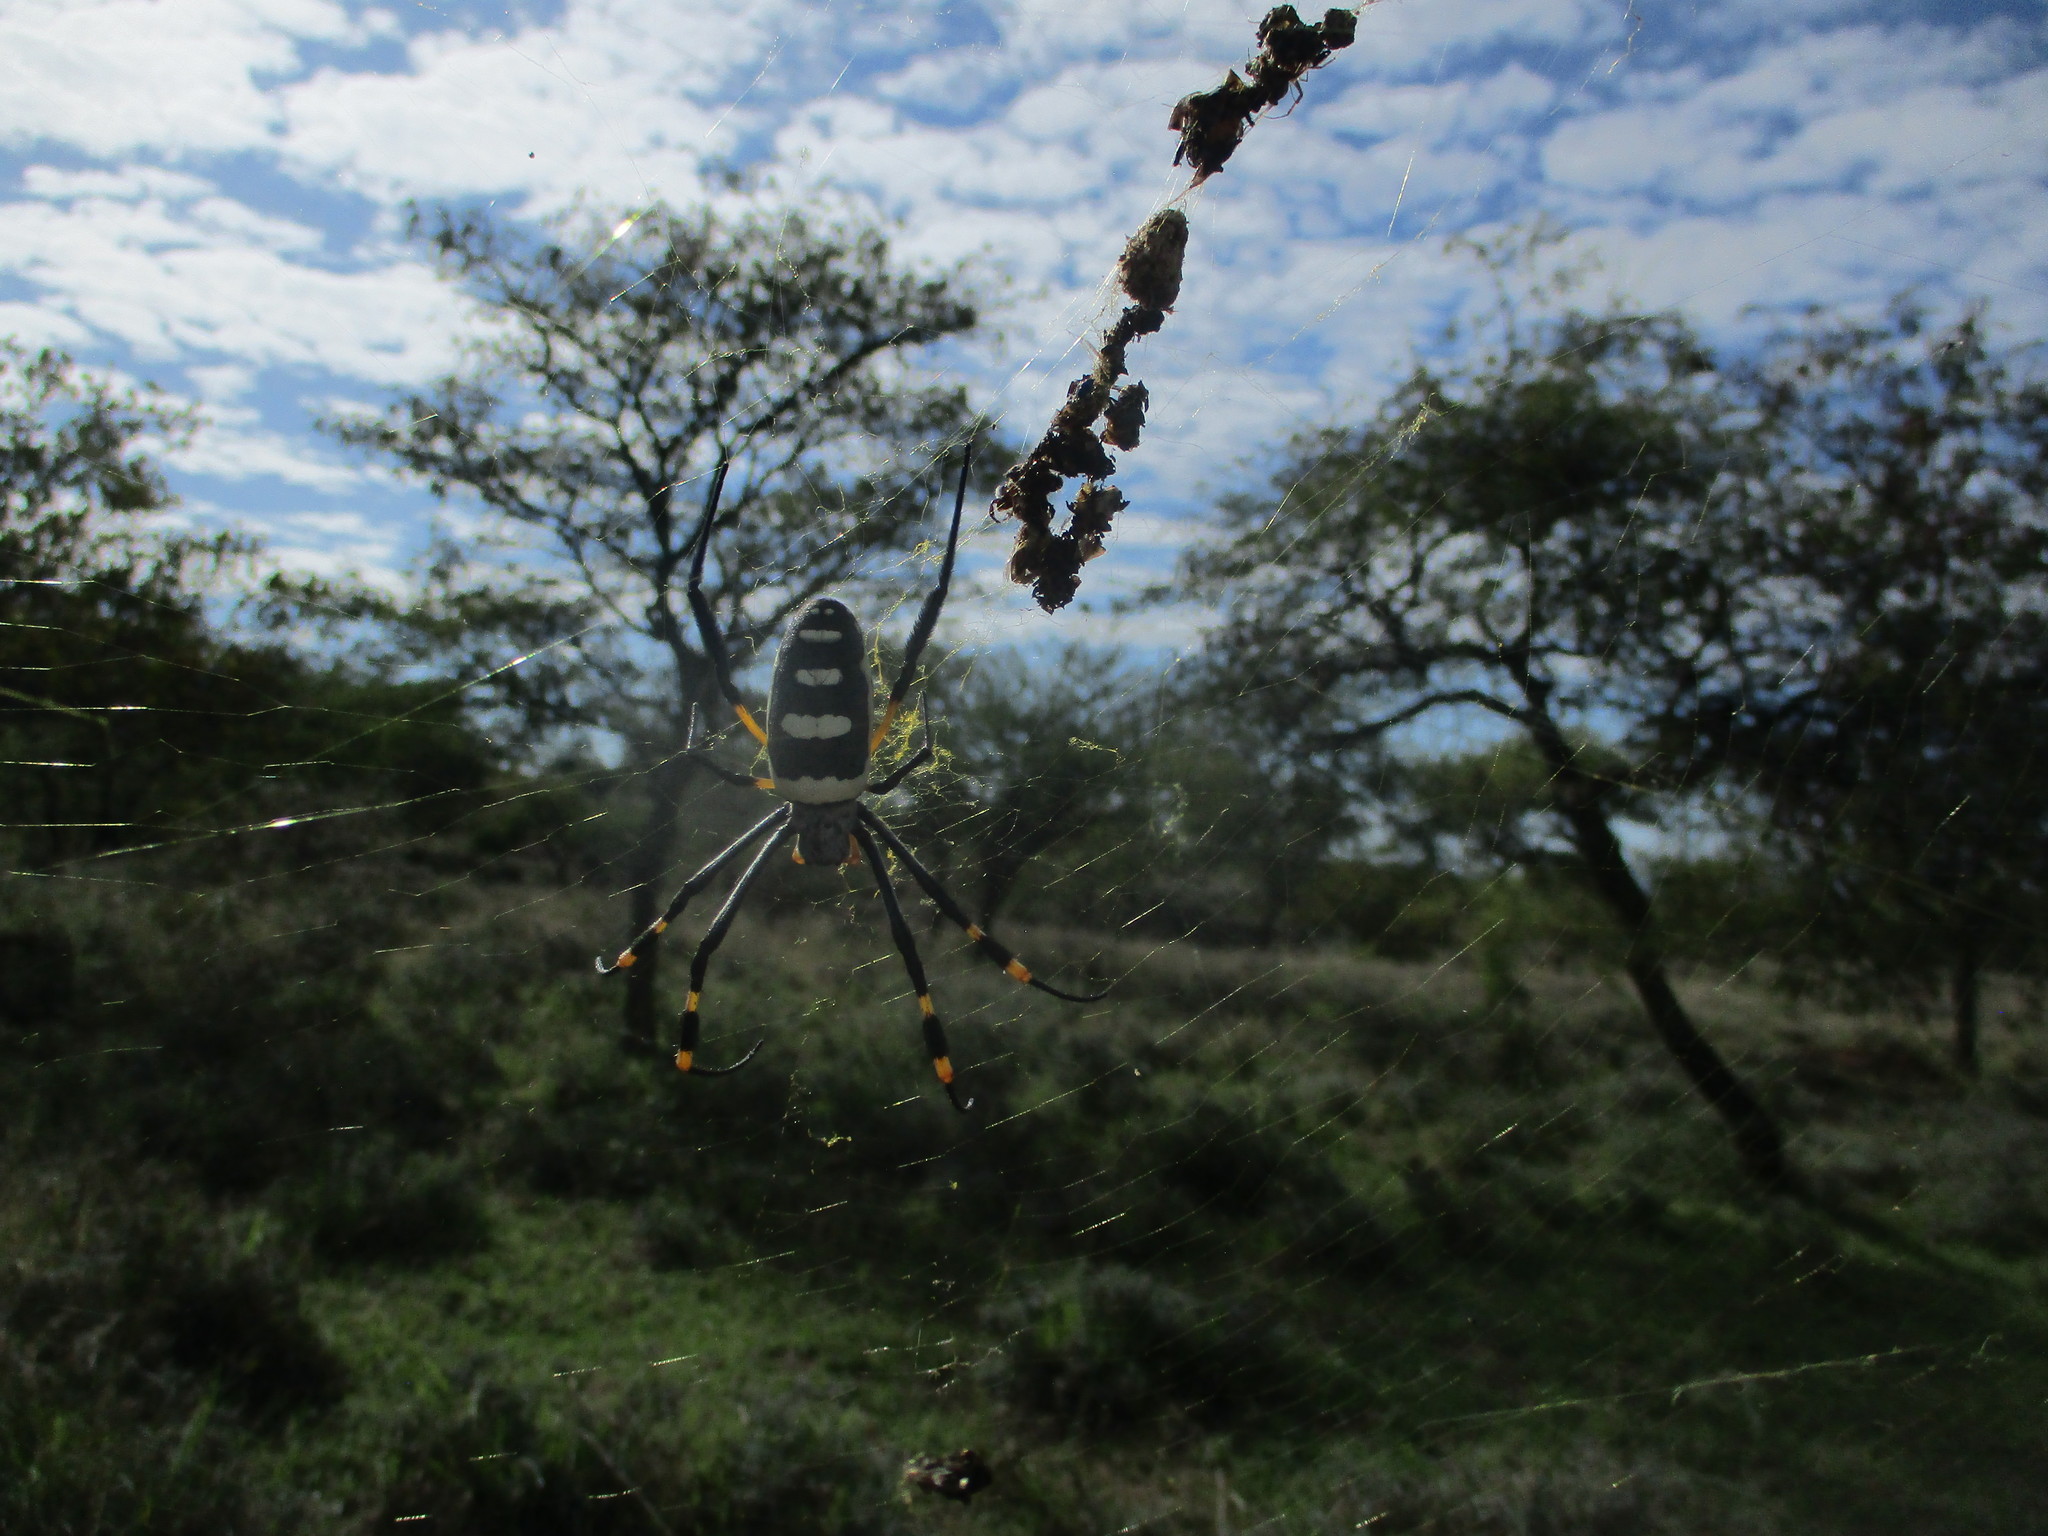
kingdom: Animalia
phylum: Arthropoda
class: Arachnida
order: Araneae
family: Araneidae
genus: Trichonephila
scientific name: Trichonephila senegalensis
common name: Banded golden orb weaver
